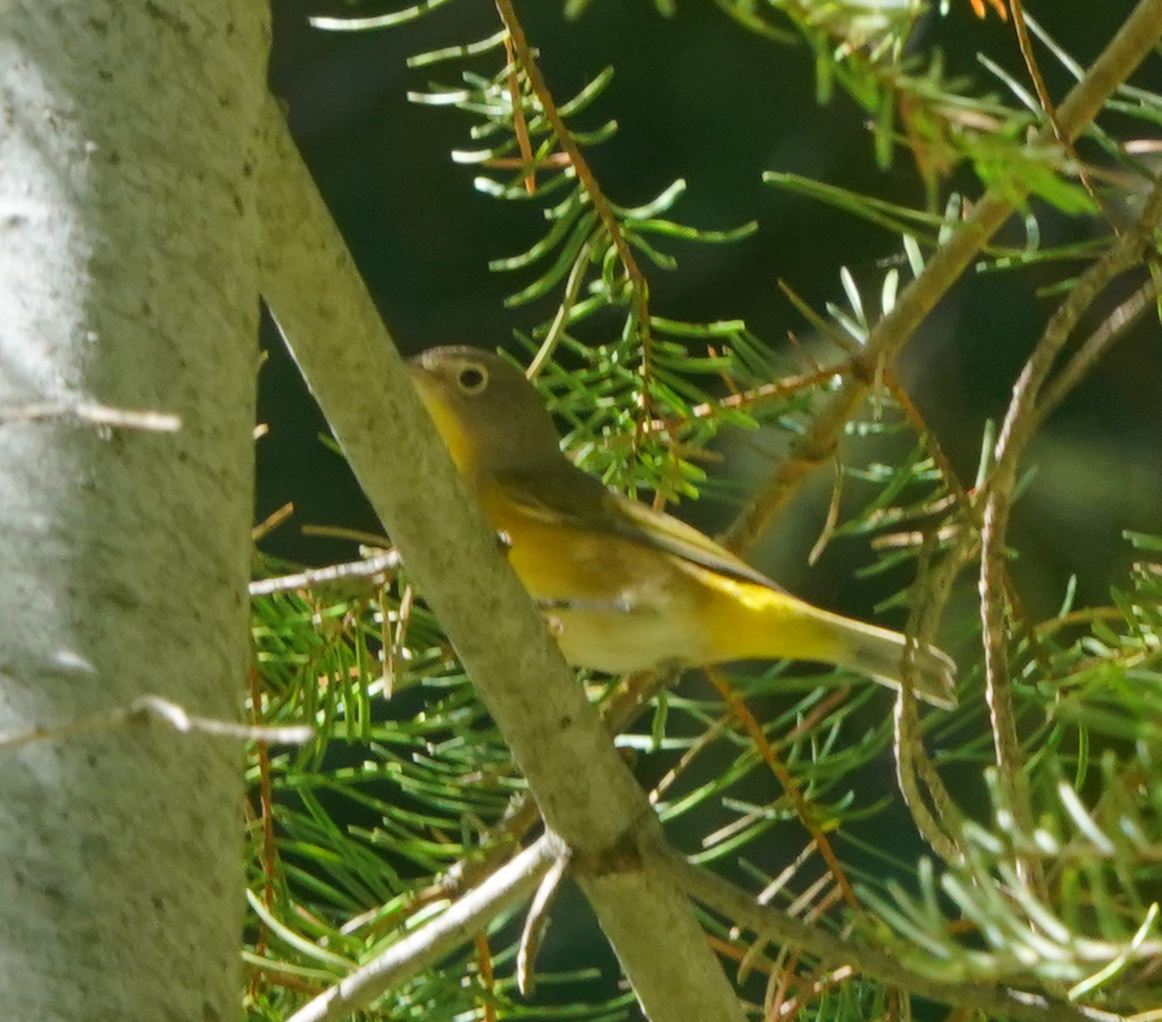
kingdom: Animalia
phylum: Chordata
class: Aves
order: Passeriformes
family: Parulidae
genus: Leiothlypis
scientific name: Leiothlypis ruficapilla
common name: Nashville warbler
